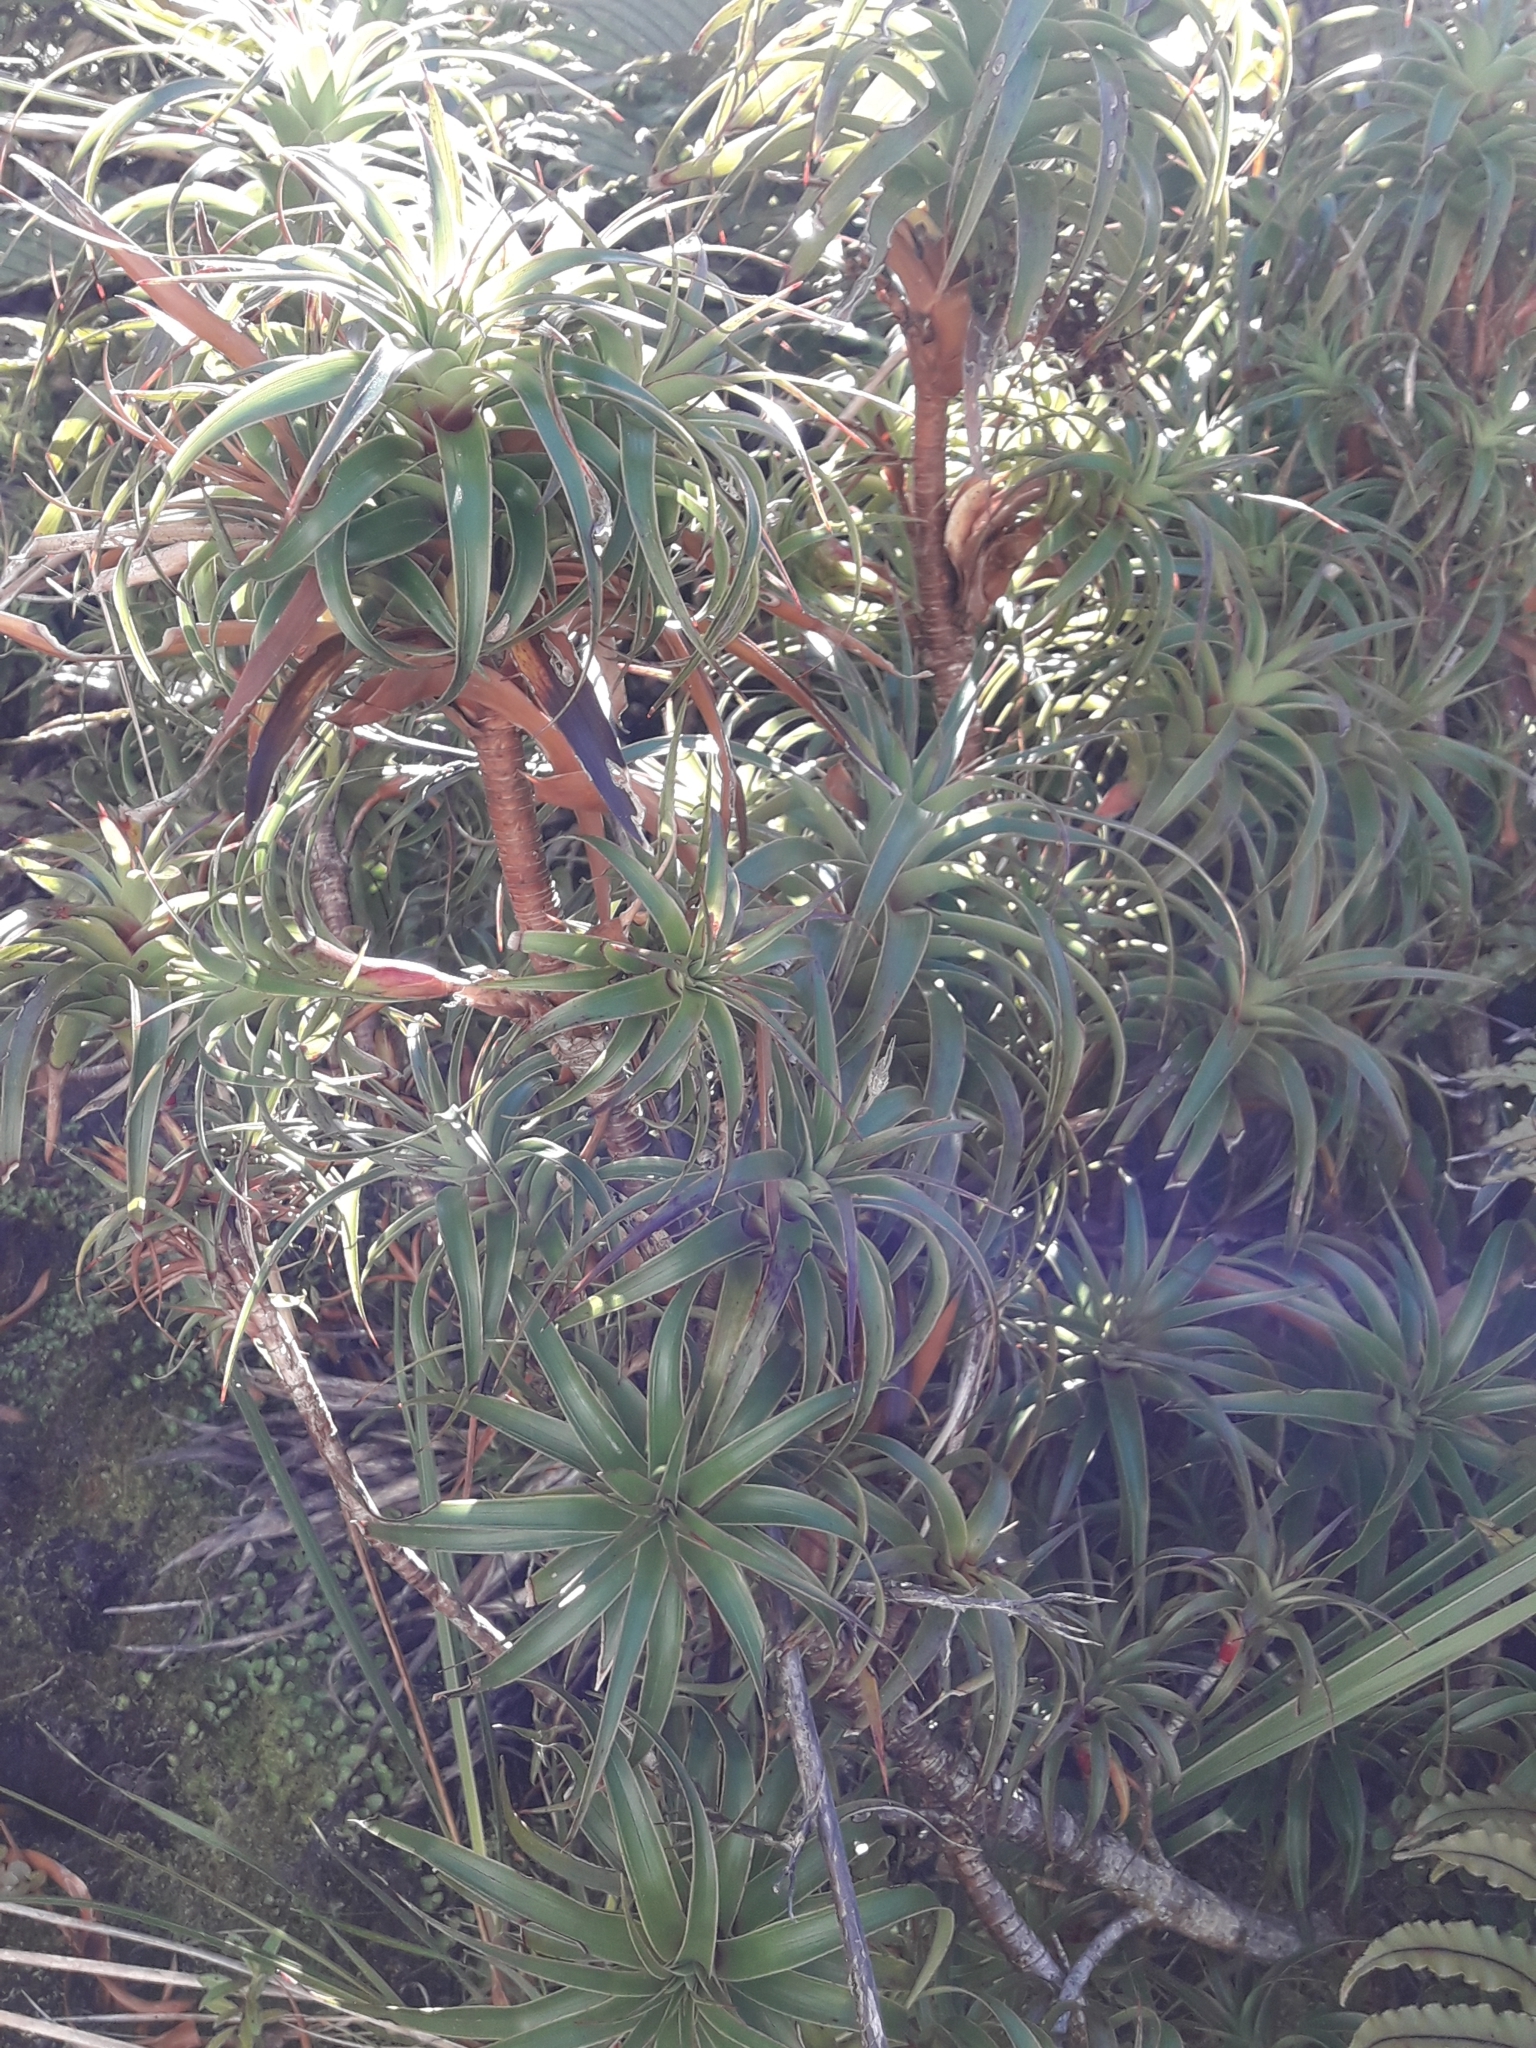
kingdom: Plantae
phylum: Tracheophyta
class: Magnoliopsida
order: Ericales
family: Ericaceae
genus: Dracophyllum
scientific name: Dracophyllum menziesii
